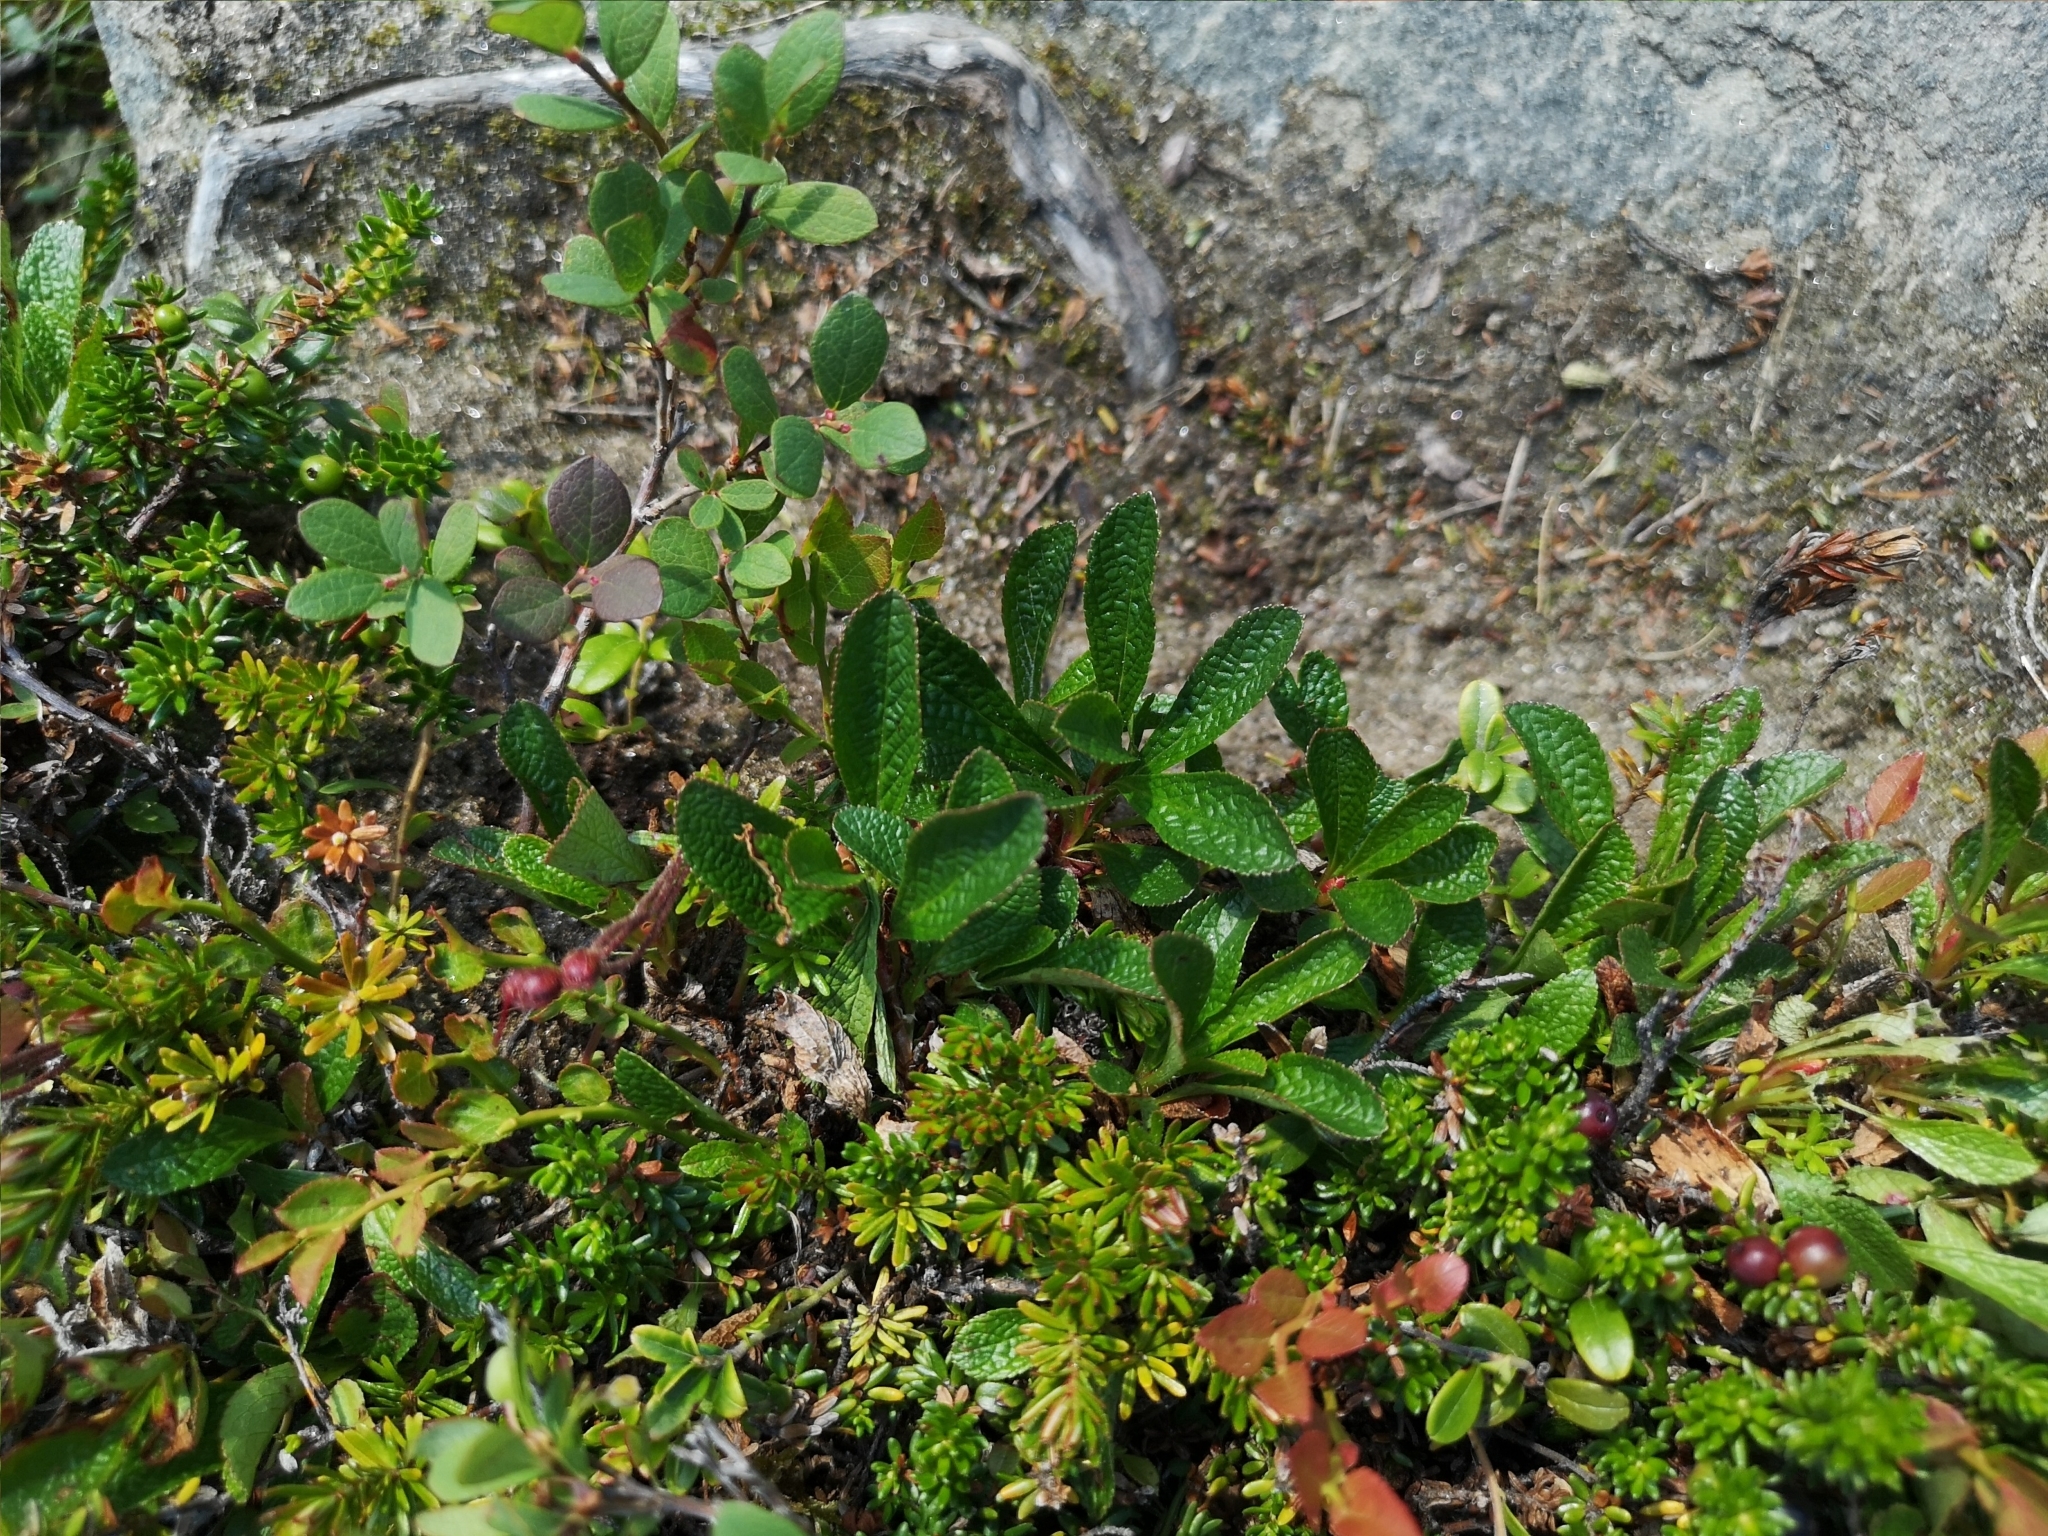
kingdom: Plantae
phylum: Tracheophyta
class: Magnoliopsida
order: Ericales
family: Ericaceae
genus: Arctostaphylos
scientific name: Arctostaphylos alpinus
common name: Alpine bearberry
